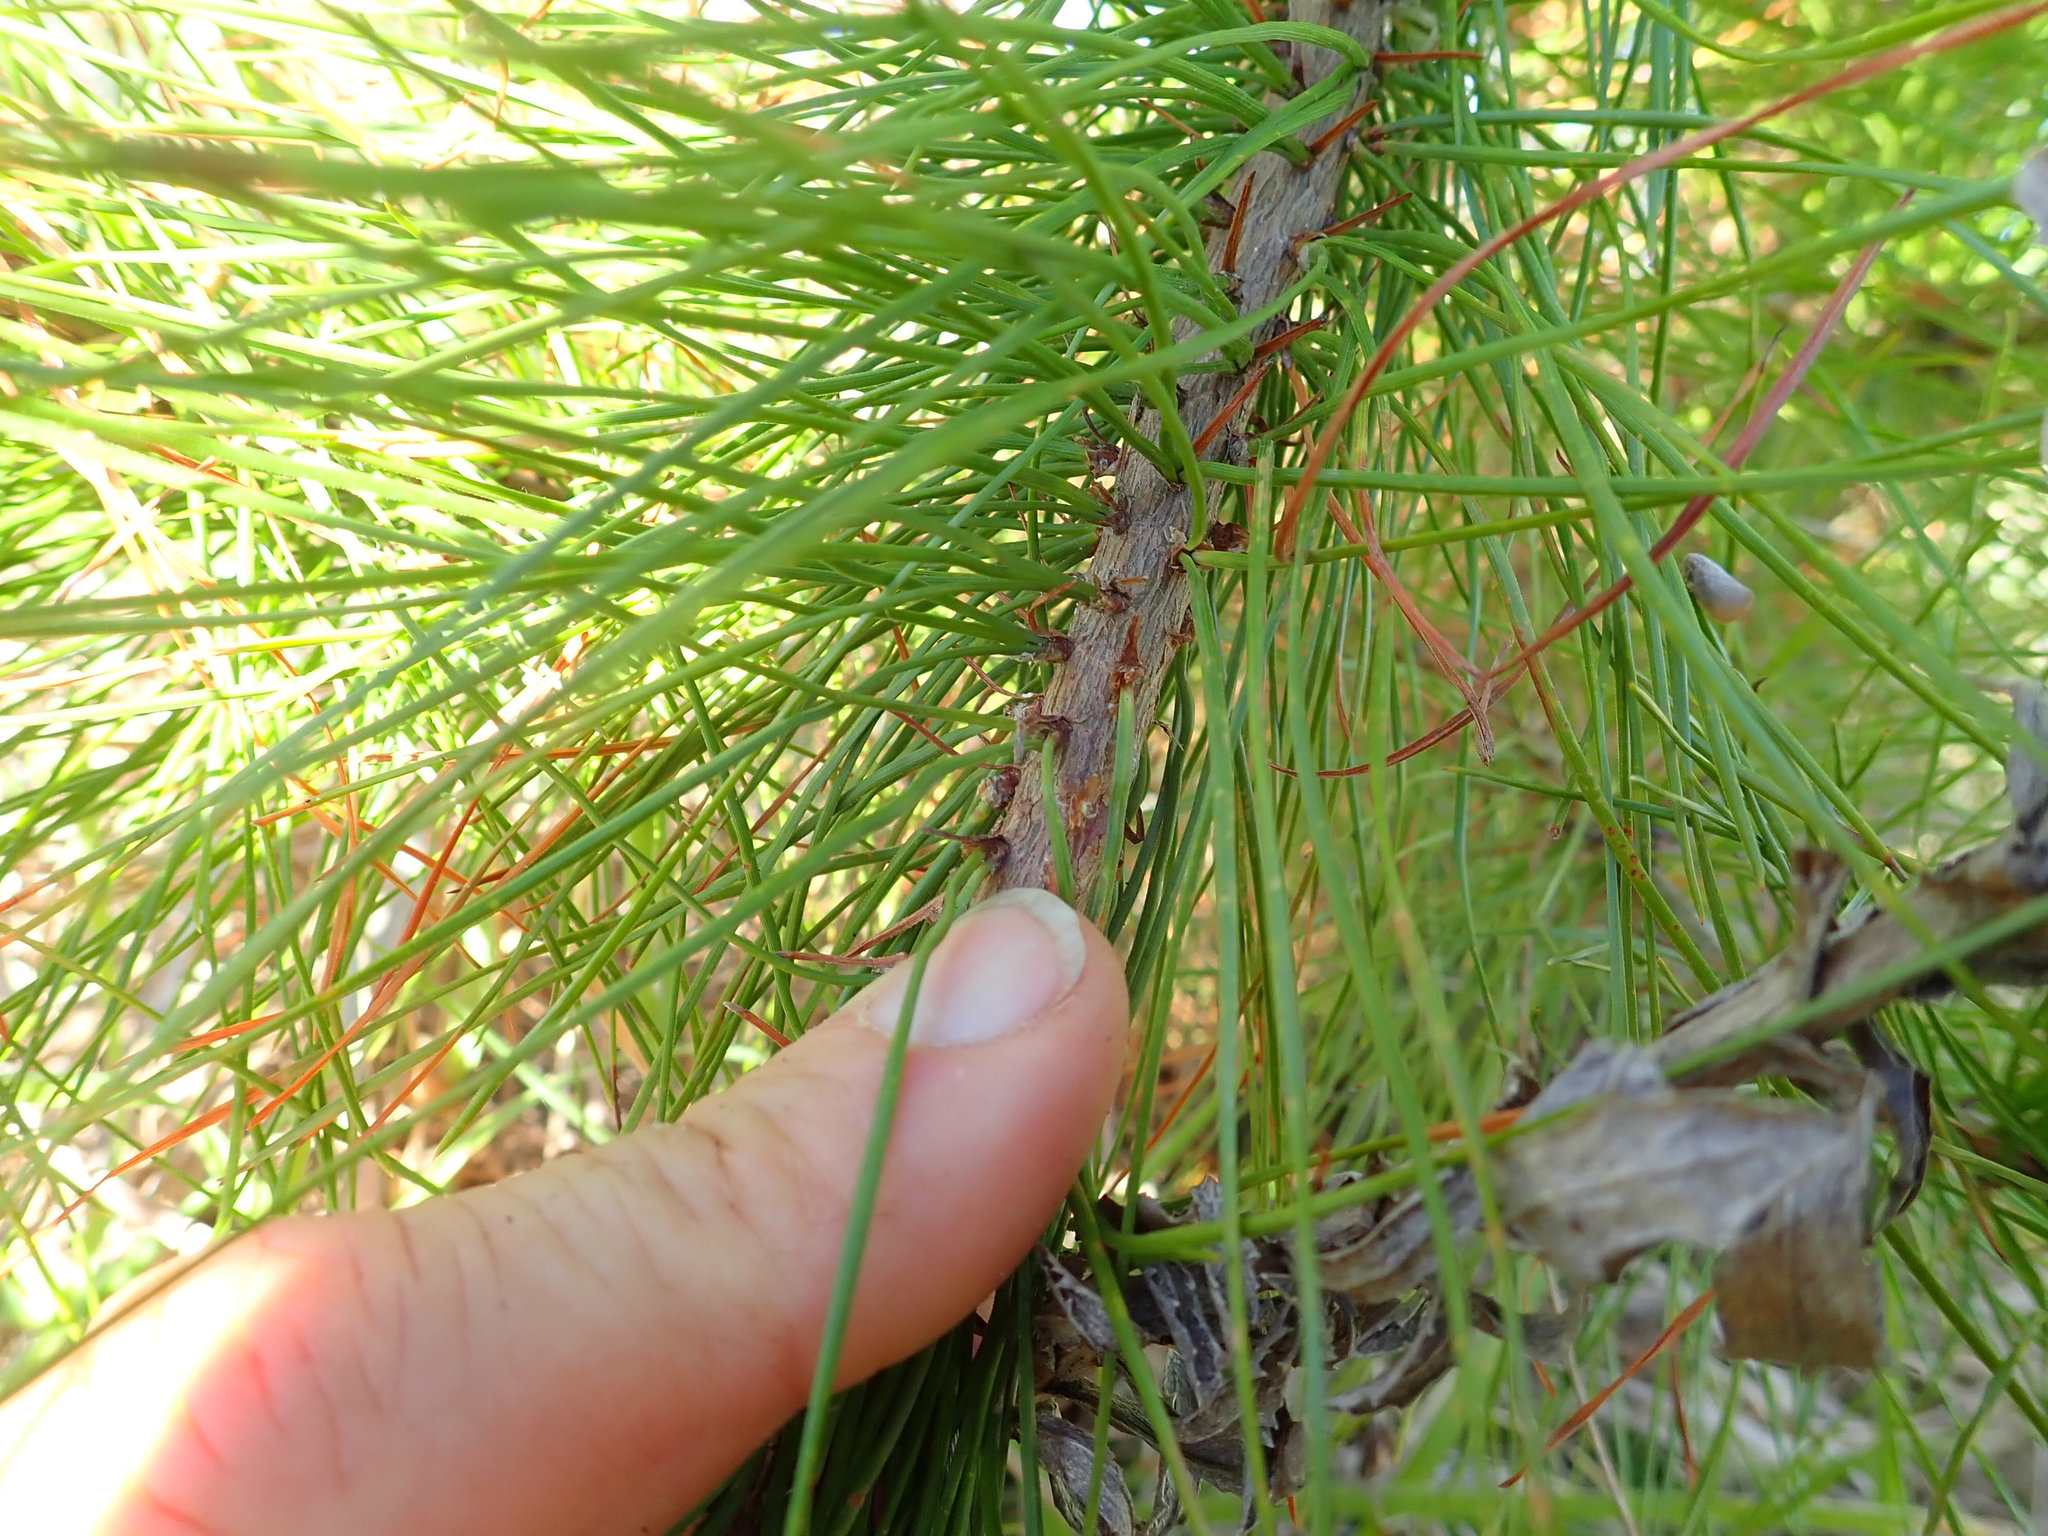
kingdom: Plantae
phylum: Tracheophyta
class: Pinopsida
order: Pinales
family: Pinaceae
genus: Pinus
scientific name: Pinus radiata
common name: Monterey pine
